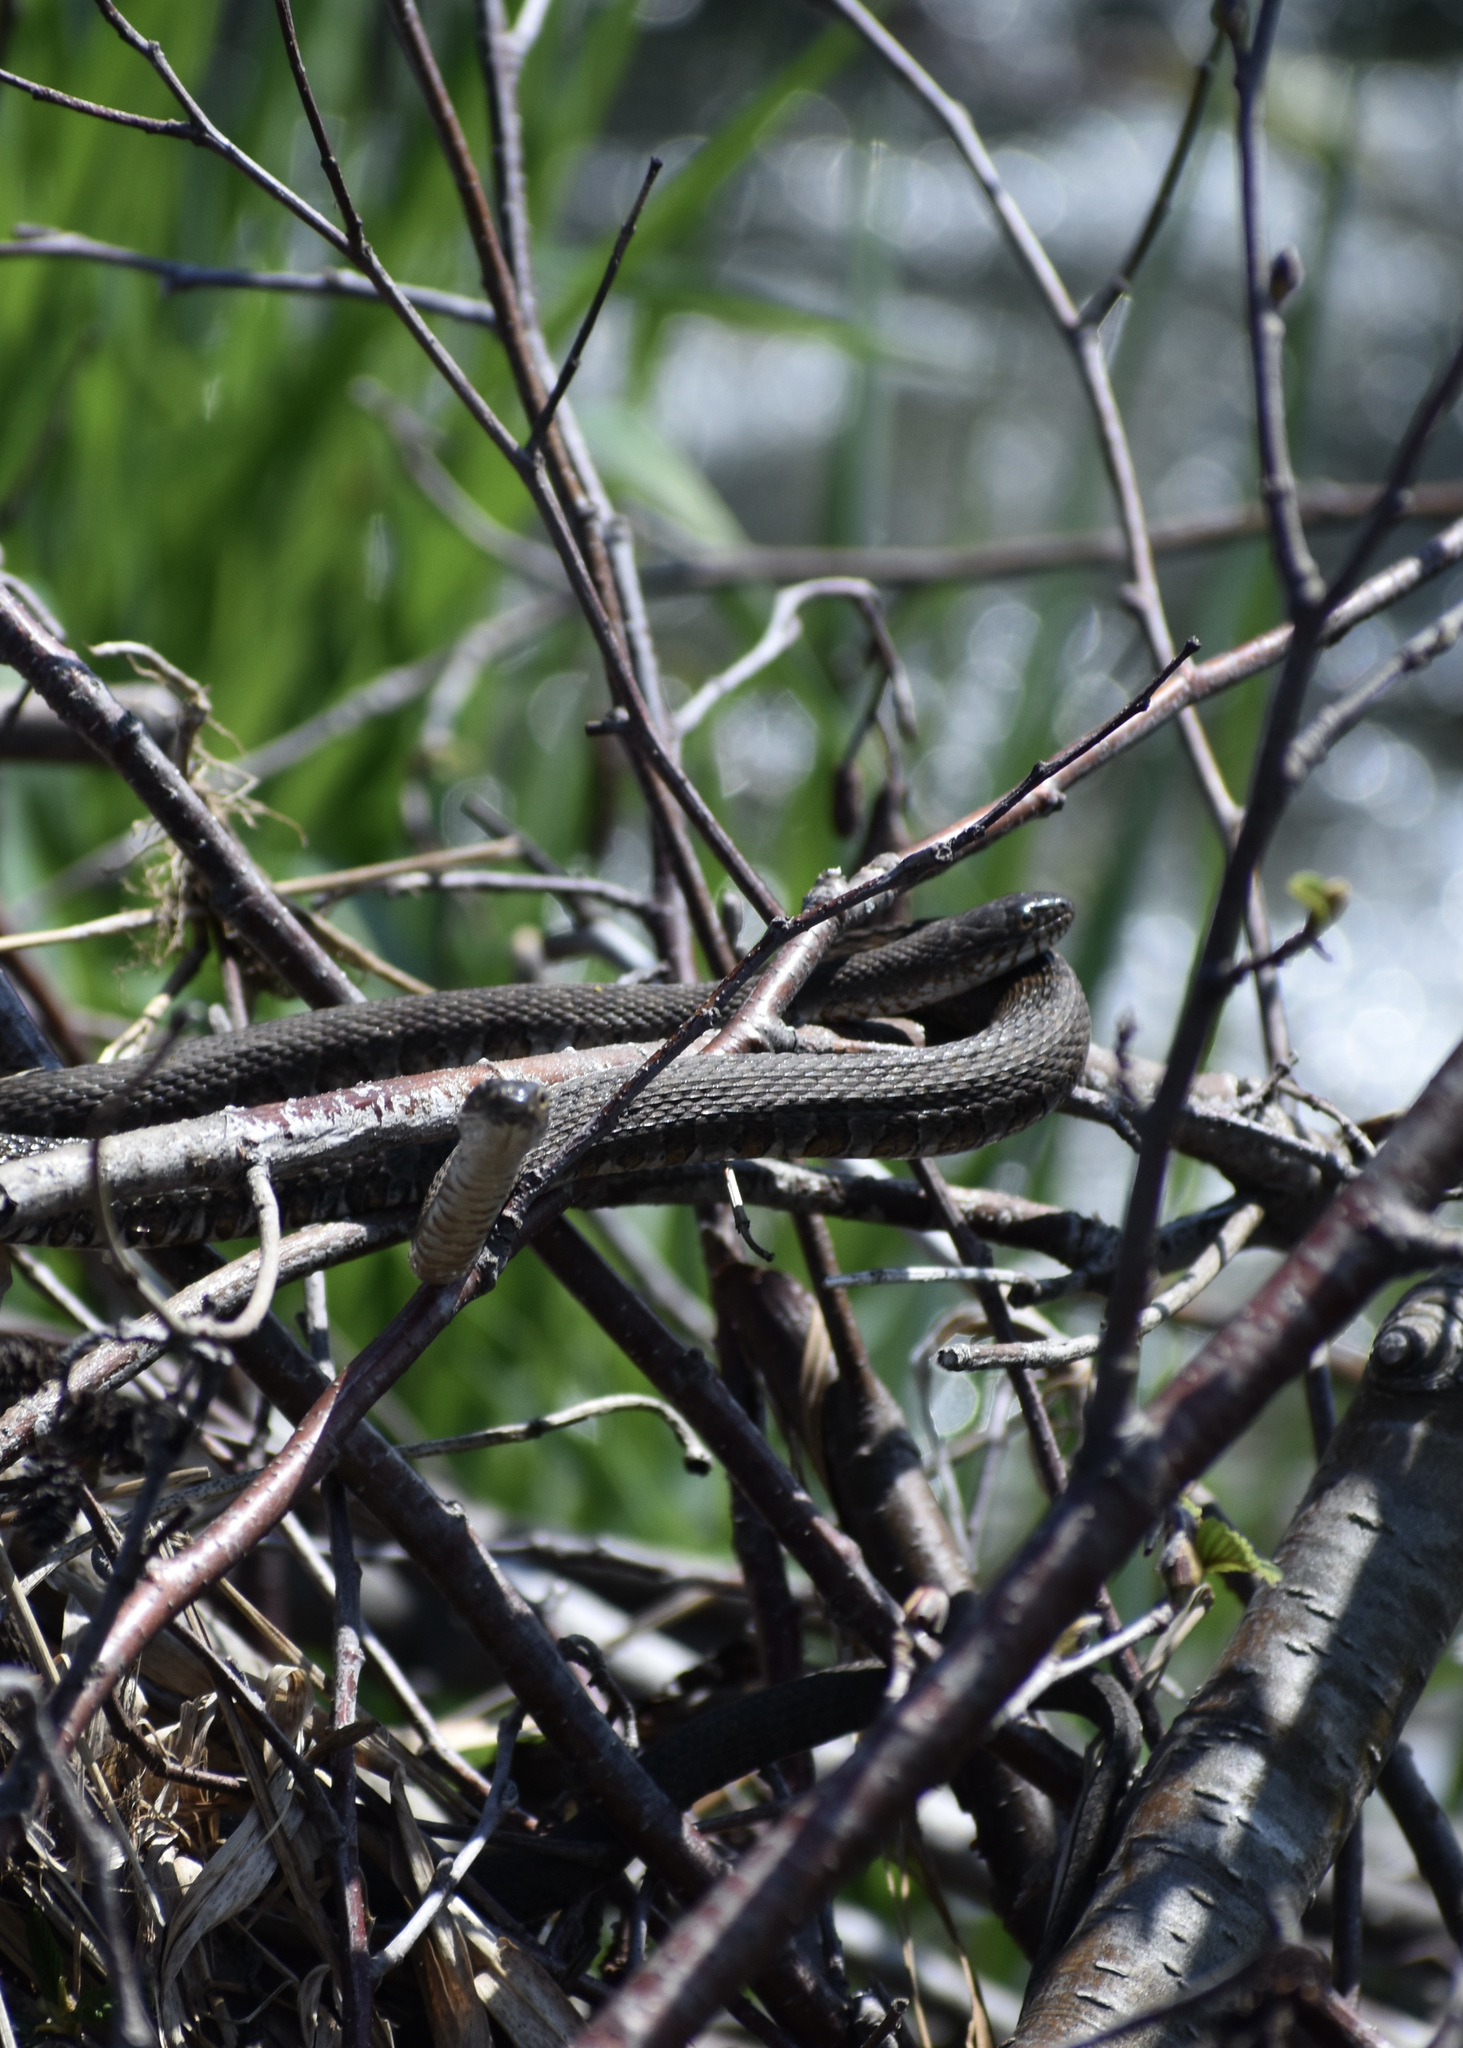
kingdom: Animalia
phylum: Chordata
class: Squamata
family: Colubridae
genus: Nerodia
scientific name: Nerodia sipedon
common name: Northern water snake
